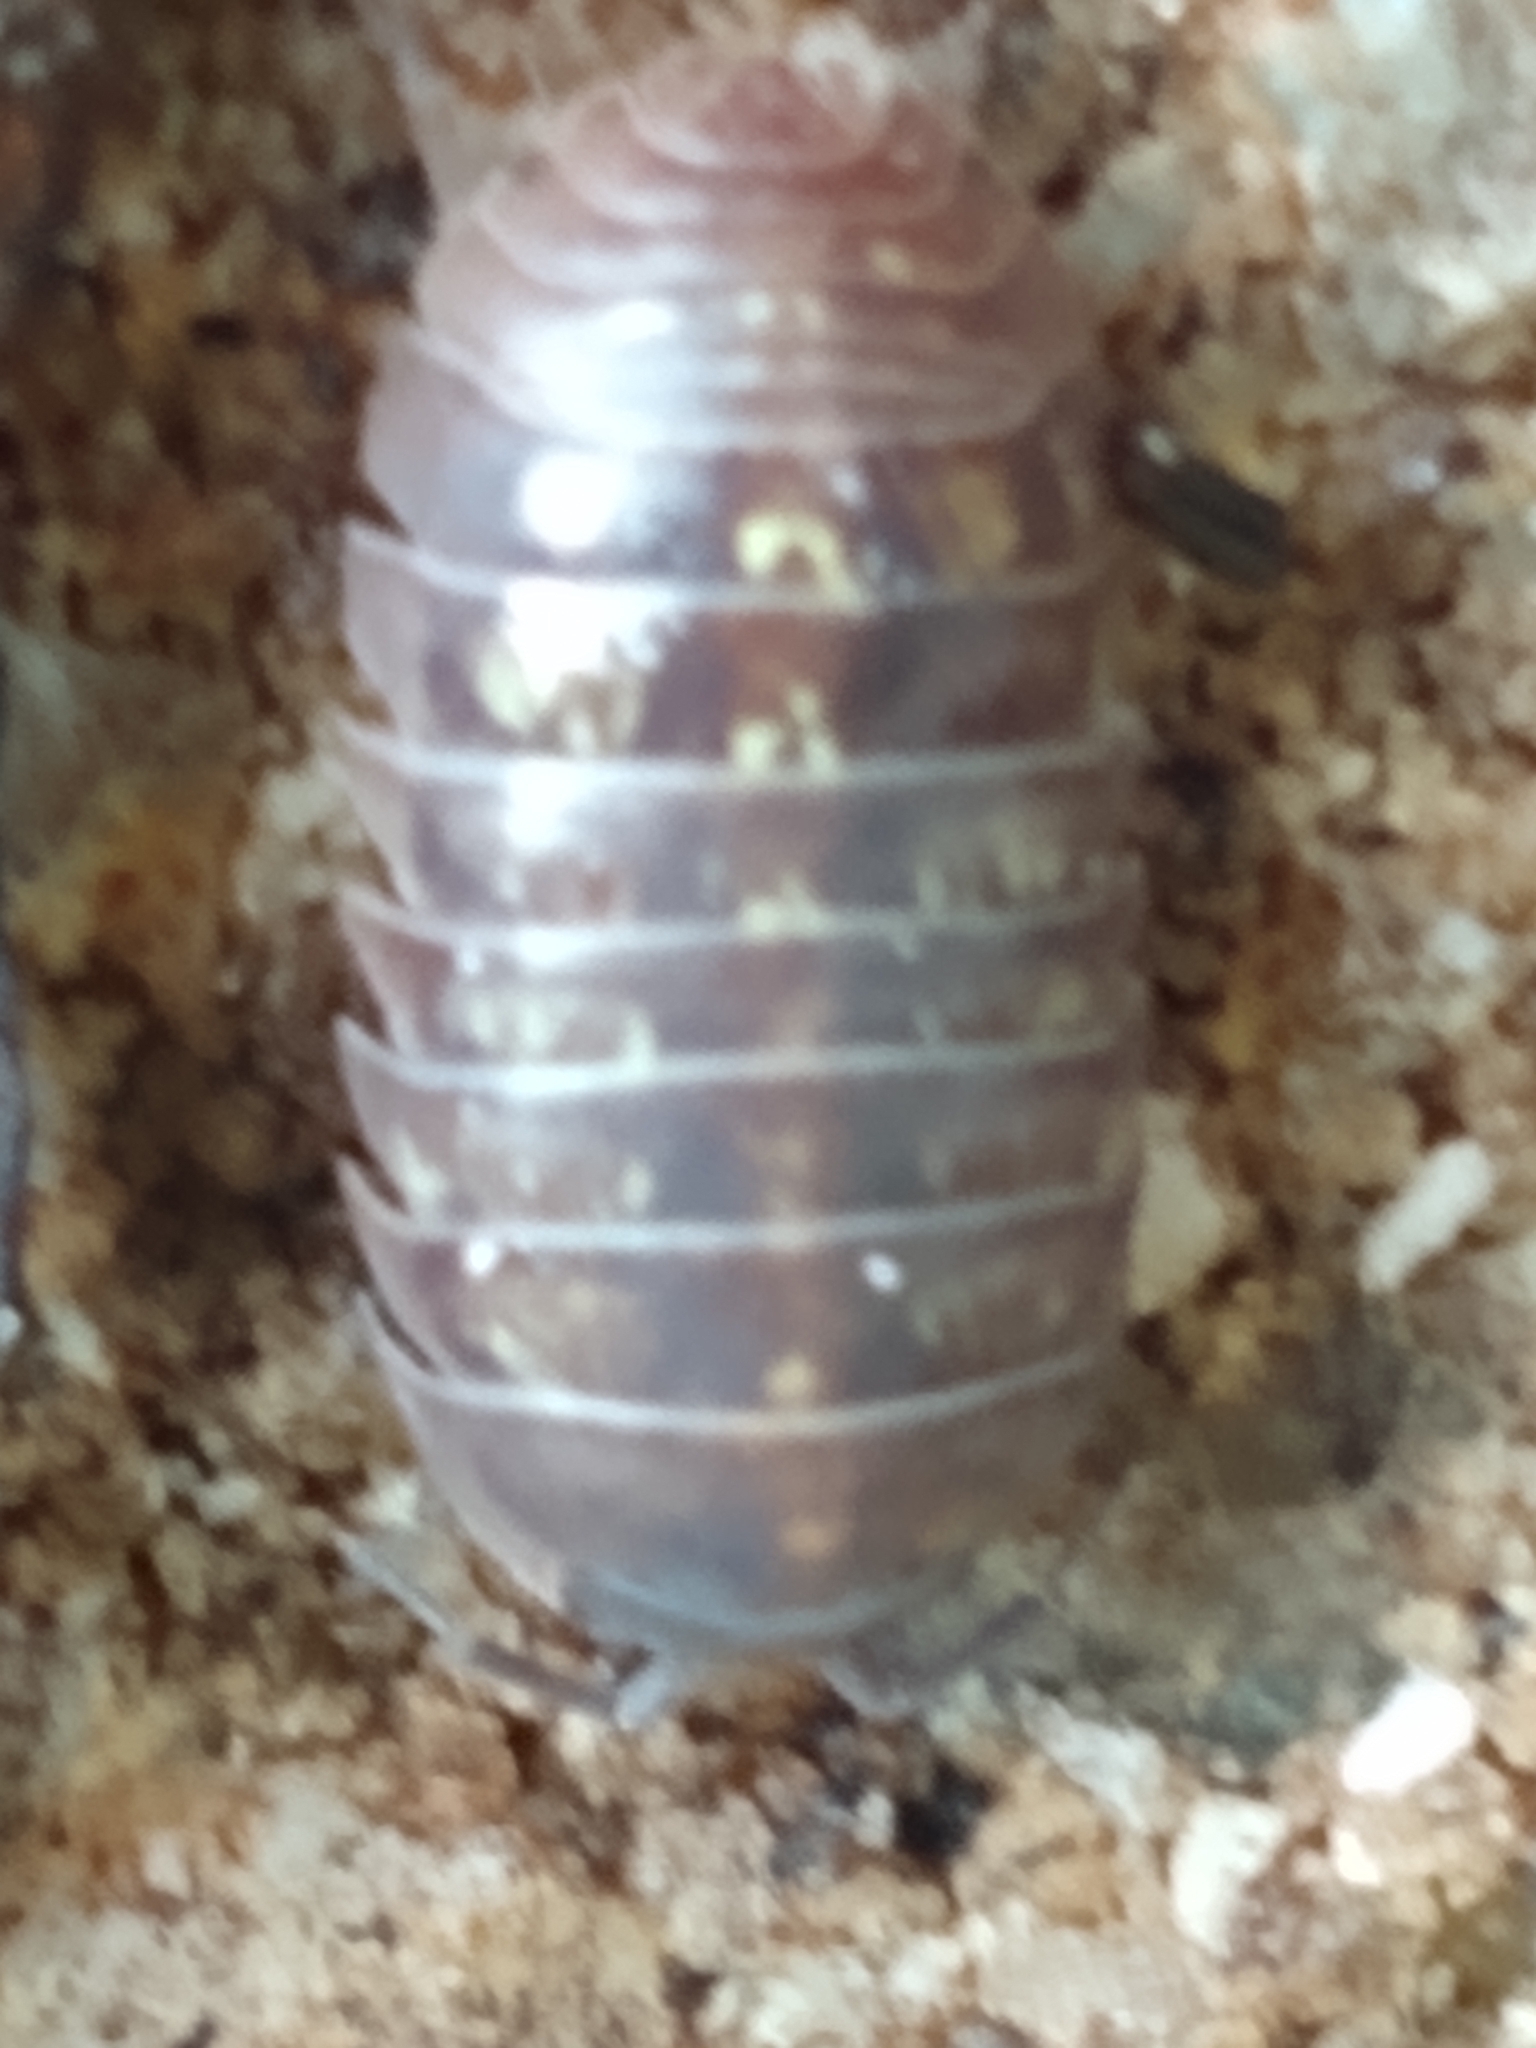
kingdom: Animalia
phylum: Arthropoda
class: Malacostraca
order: Isopoda
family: Armadillidiidae
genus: Armadillidium
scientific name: Armadillidium vulgare
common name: Common pill woodlouse
